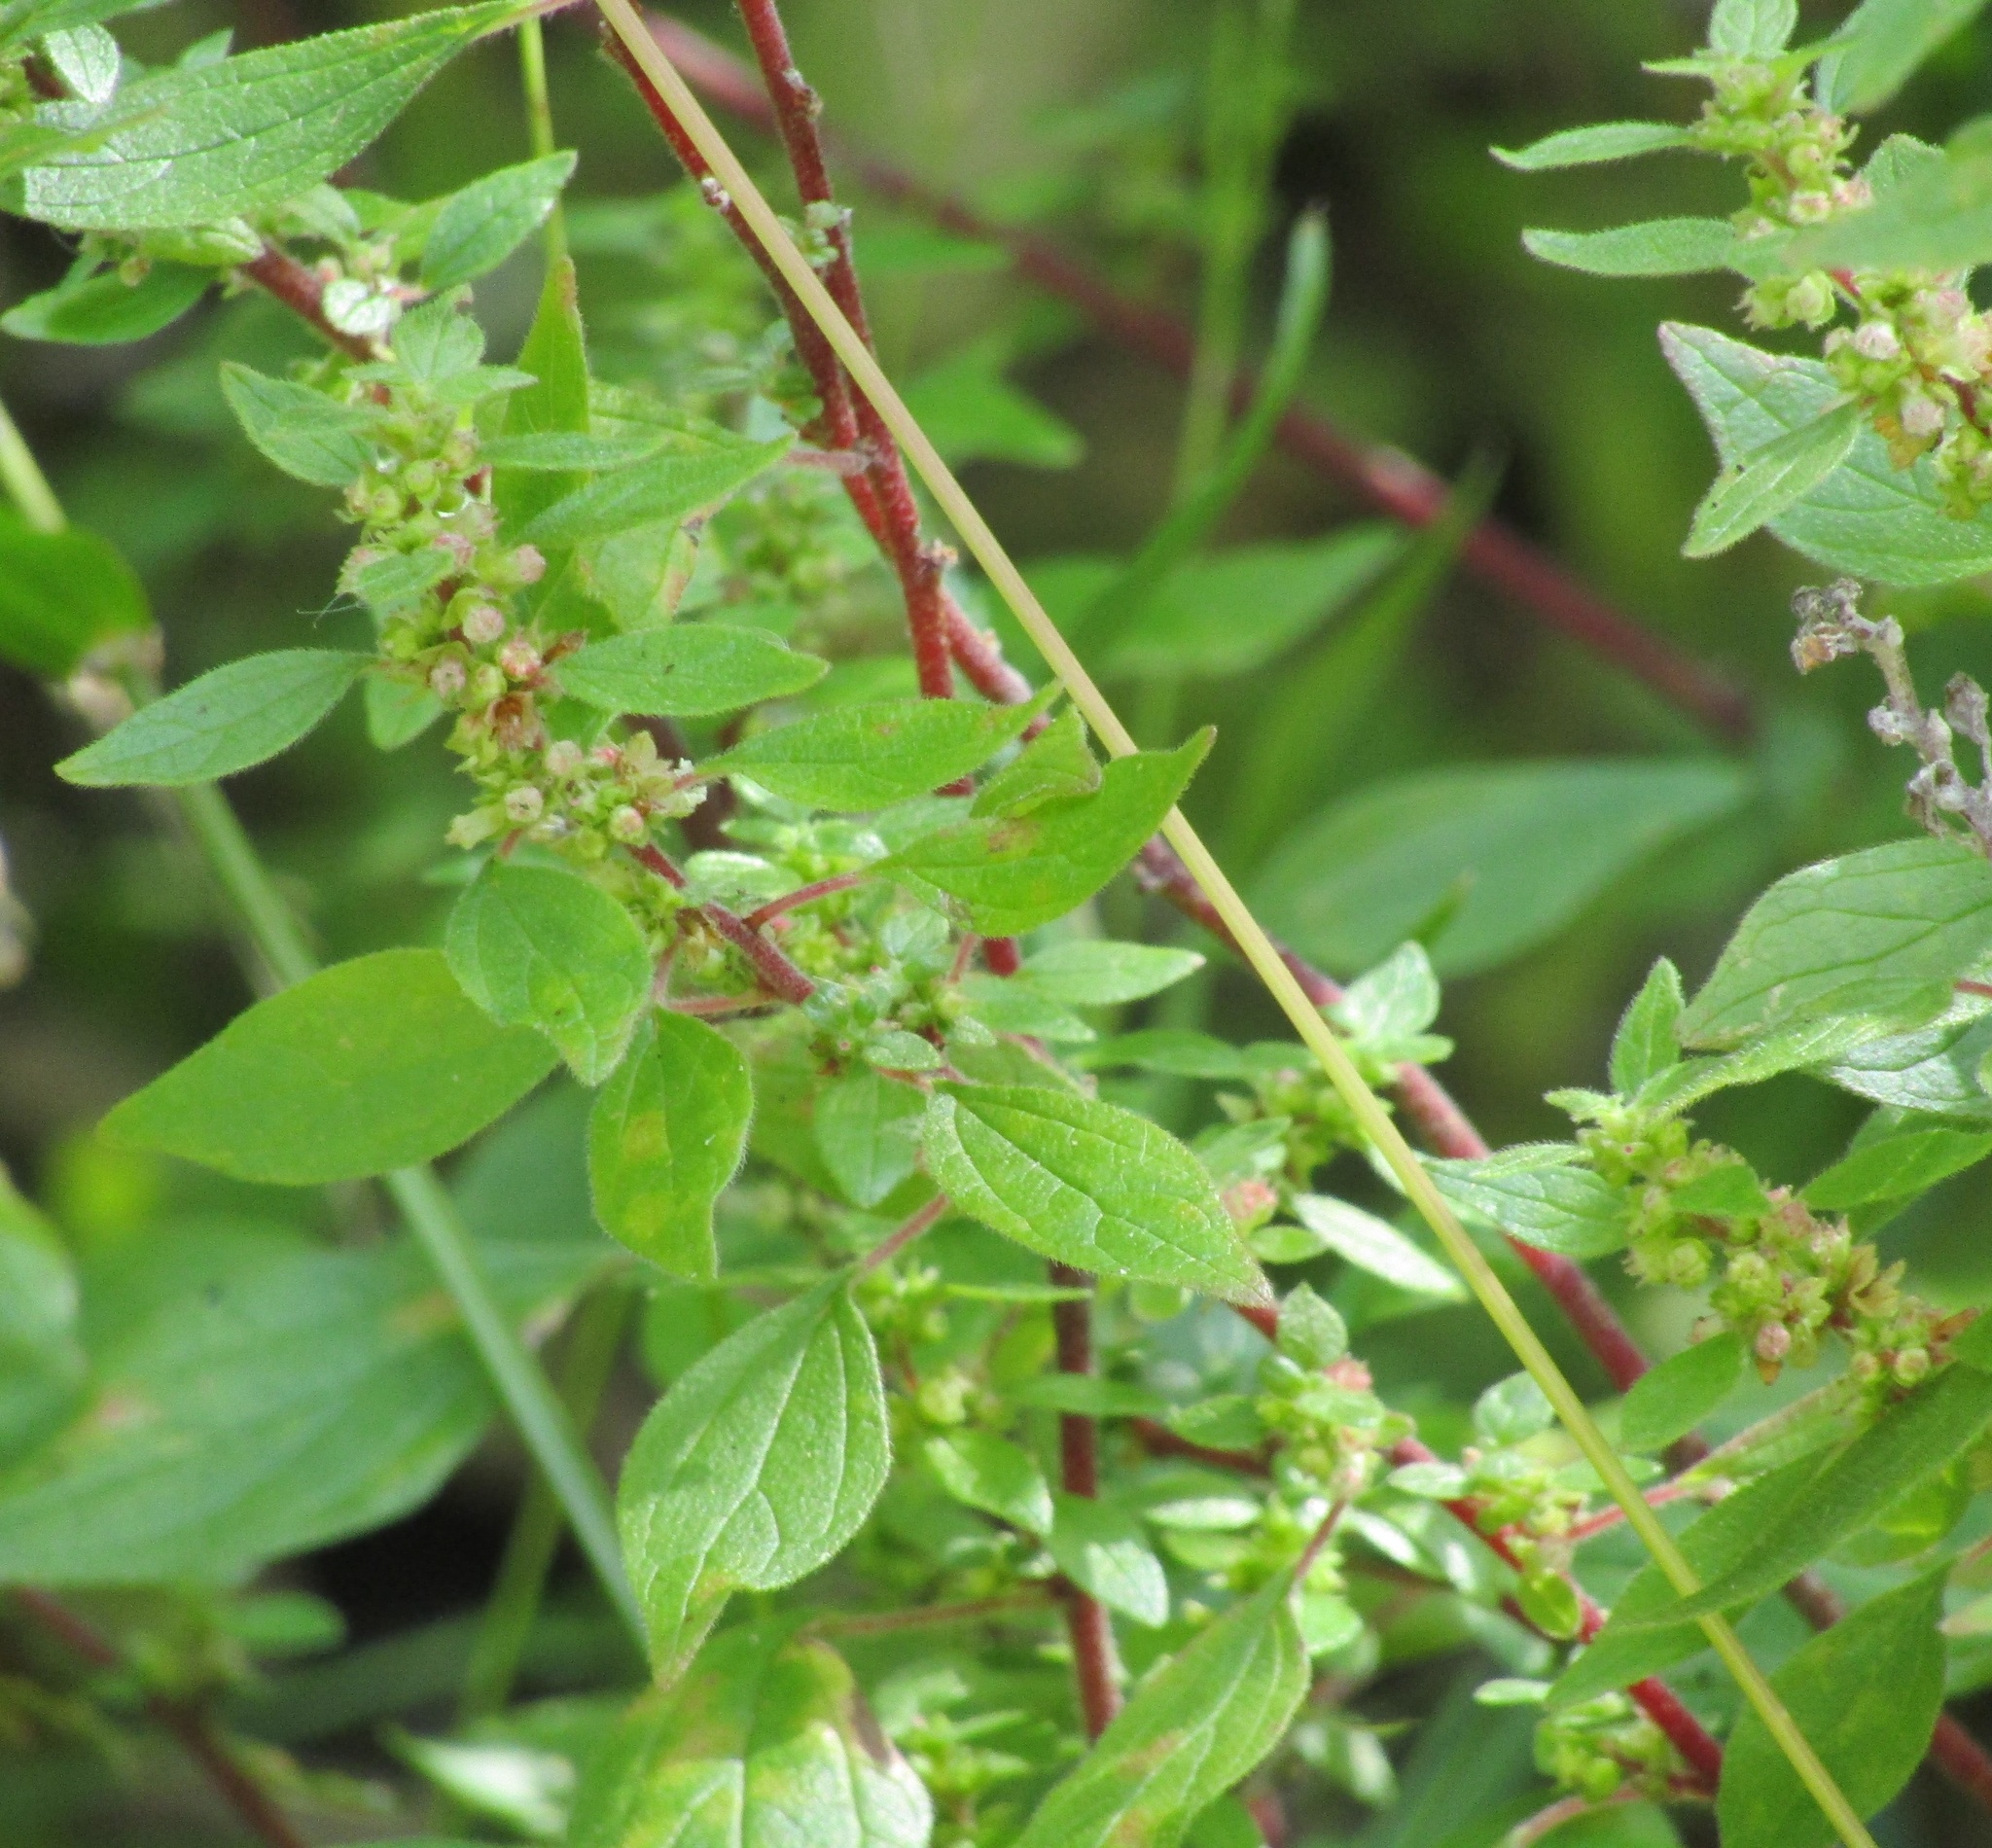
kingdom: Plantae
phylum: Tracheophyta
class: Magnoliopsida
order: Rosales
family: Urticaceae
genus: Parietaria
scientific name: Parietaria judaica
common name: Pellitory-of-the-wall
